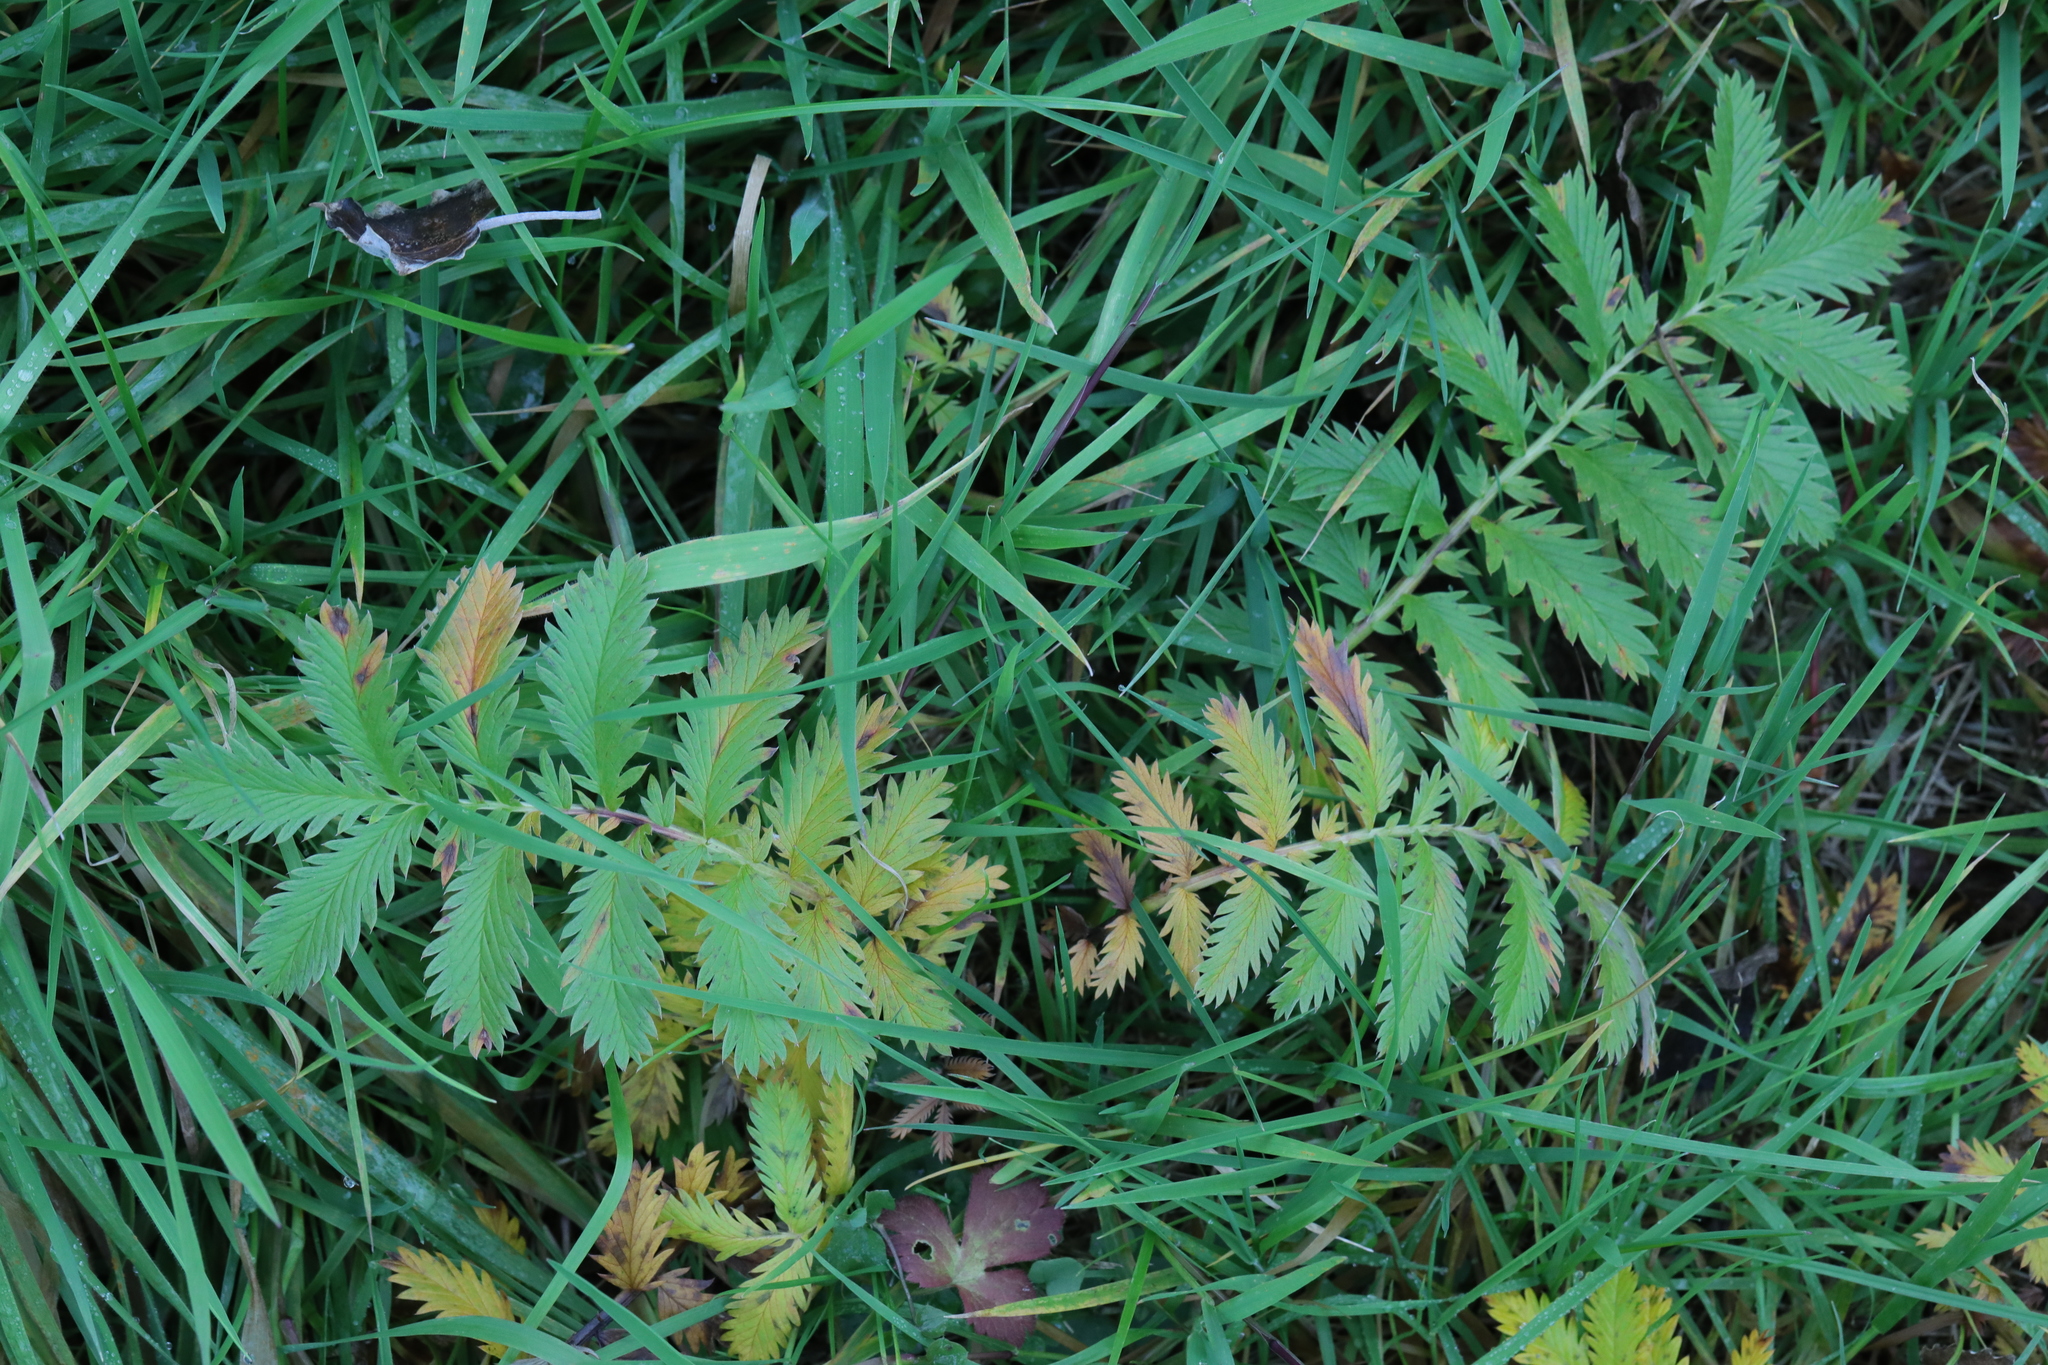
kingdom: Plantae
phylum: Tracheophyta
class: Magnoliopsida
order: Rosales
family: Rosaceae
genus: Argentina
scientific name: Argentina anserina
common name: Common silverweed
